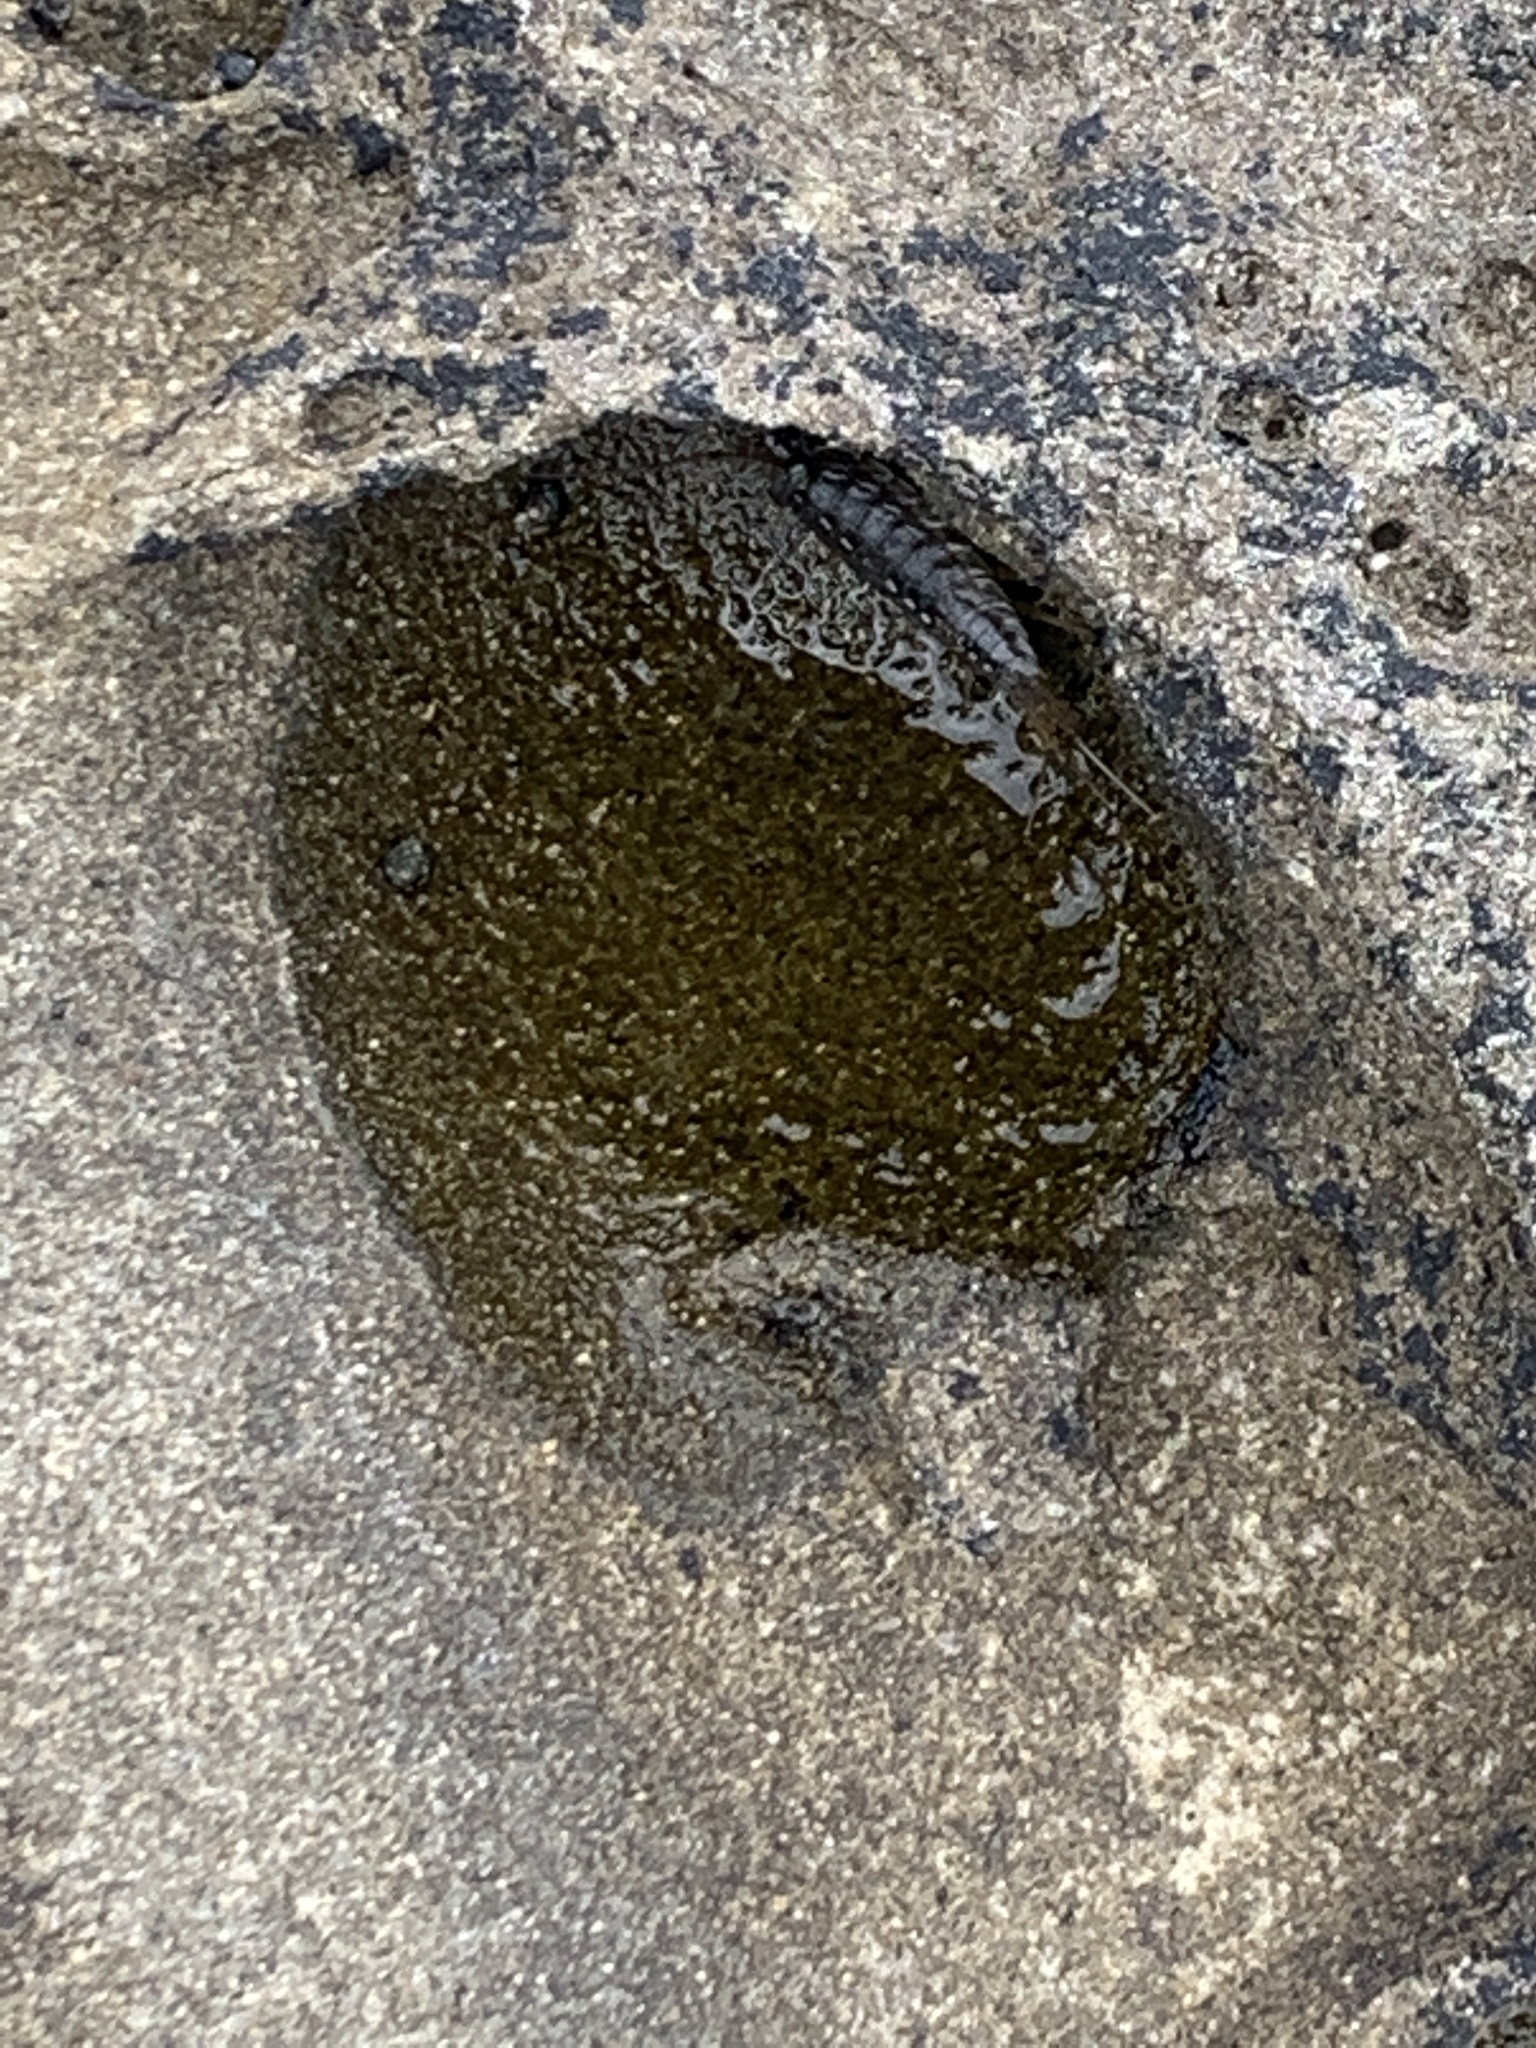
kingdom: Animalia
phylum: Arthropoda
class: Malacostraca
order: Isopoda
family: Ligiidae
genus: Ligia
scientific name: Ligia occidentalis
